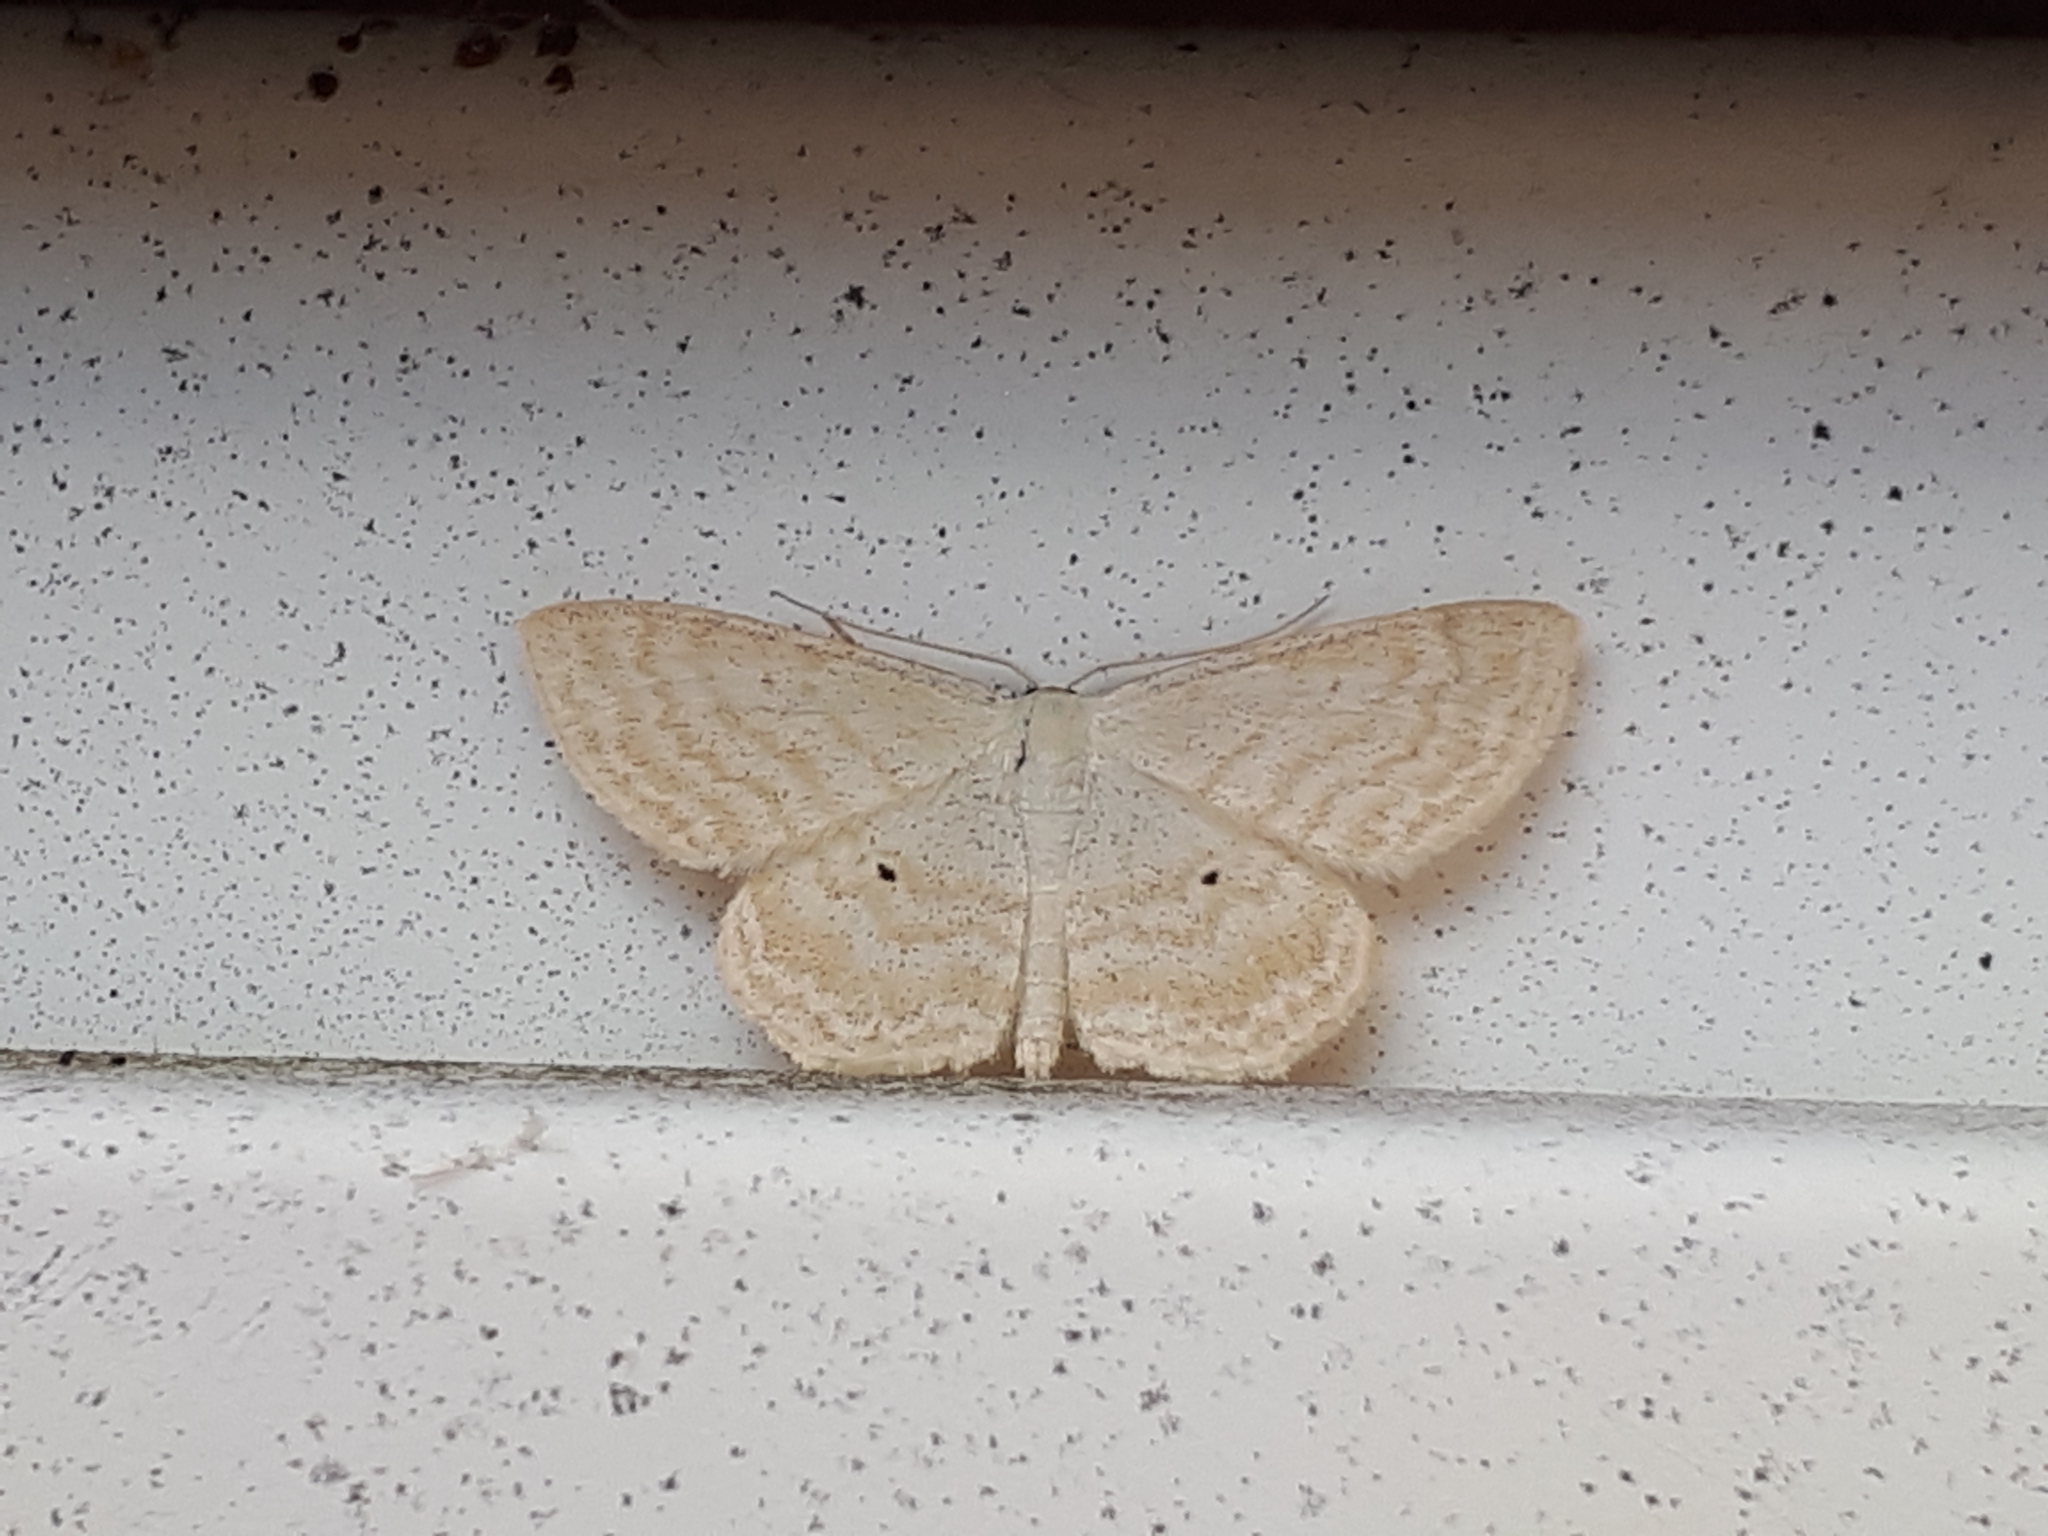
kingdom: Animalia
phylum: Arthropoda
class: Insecta
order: Lepidoptera
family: Geometridae
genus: Scopula
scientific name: Scopula immutata
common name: Lesser cream wave
